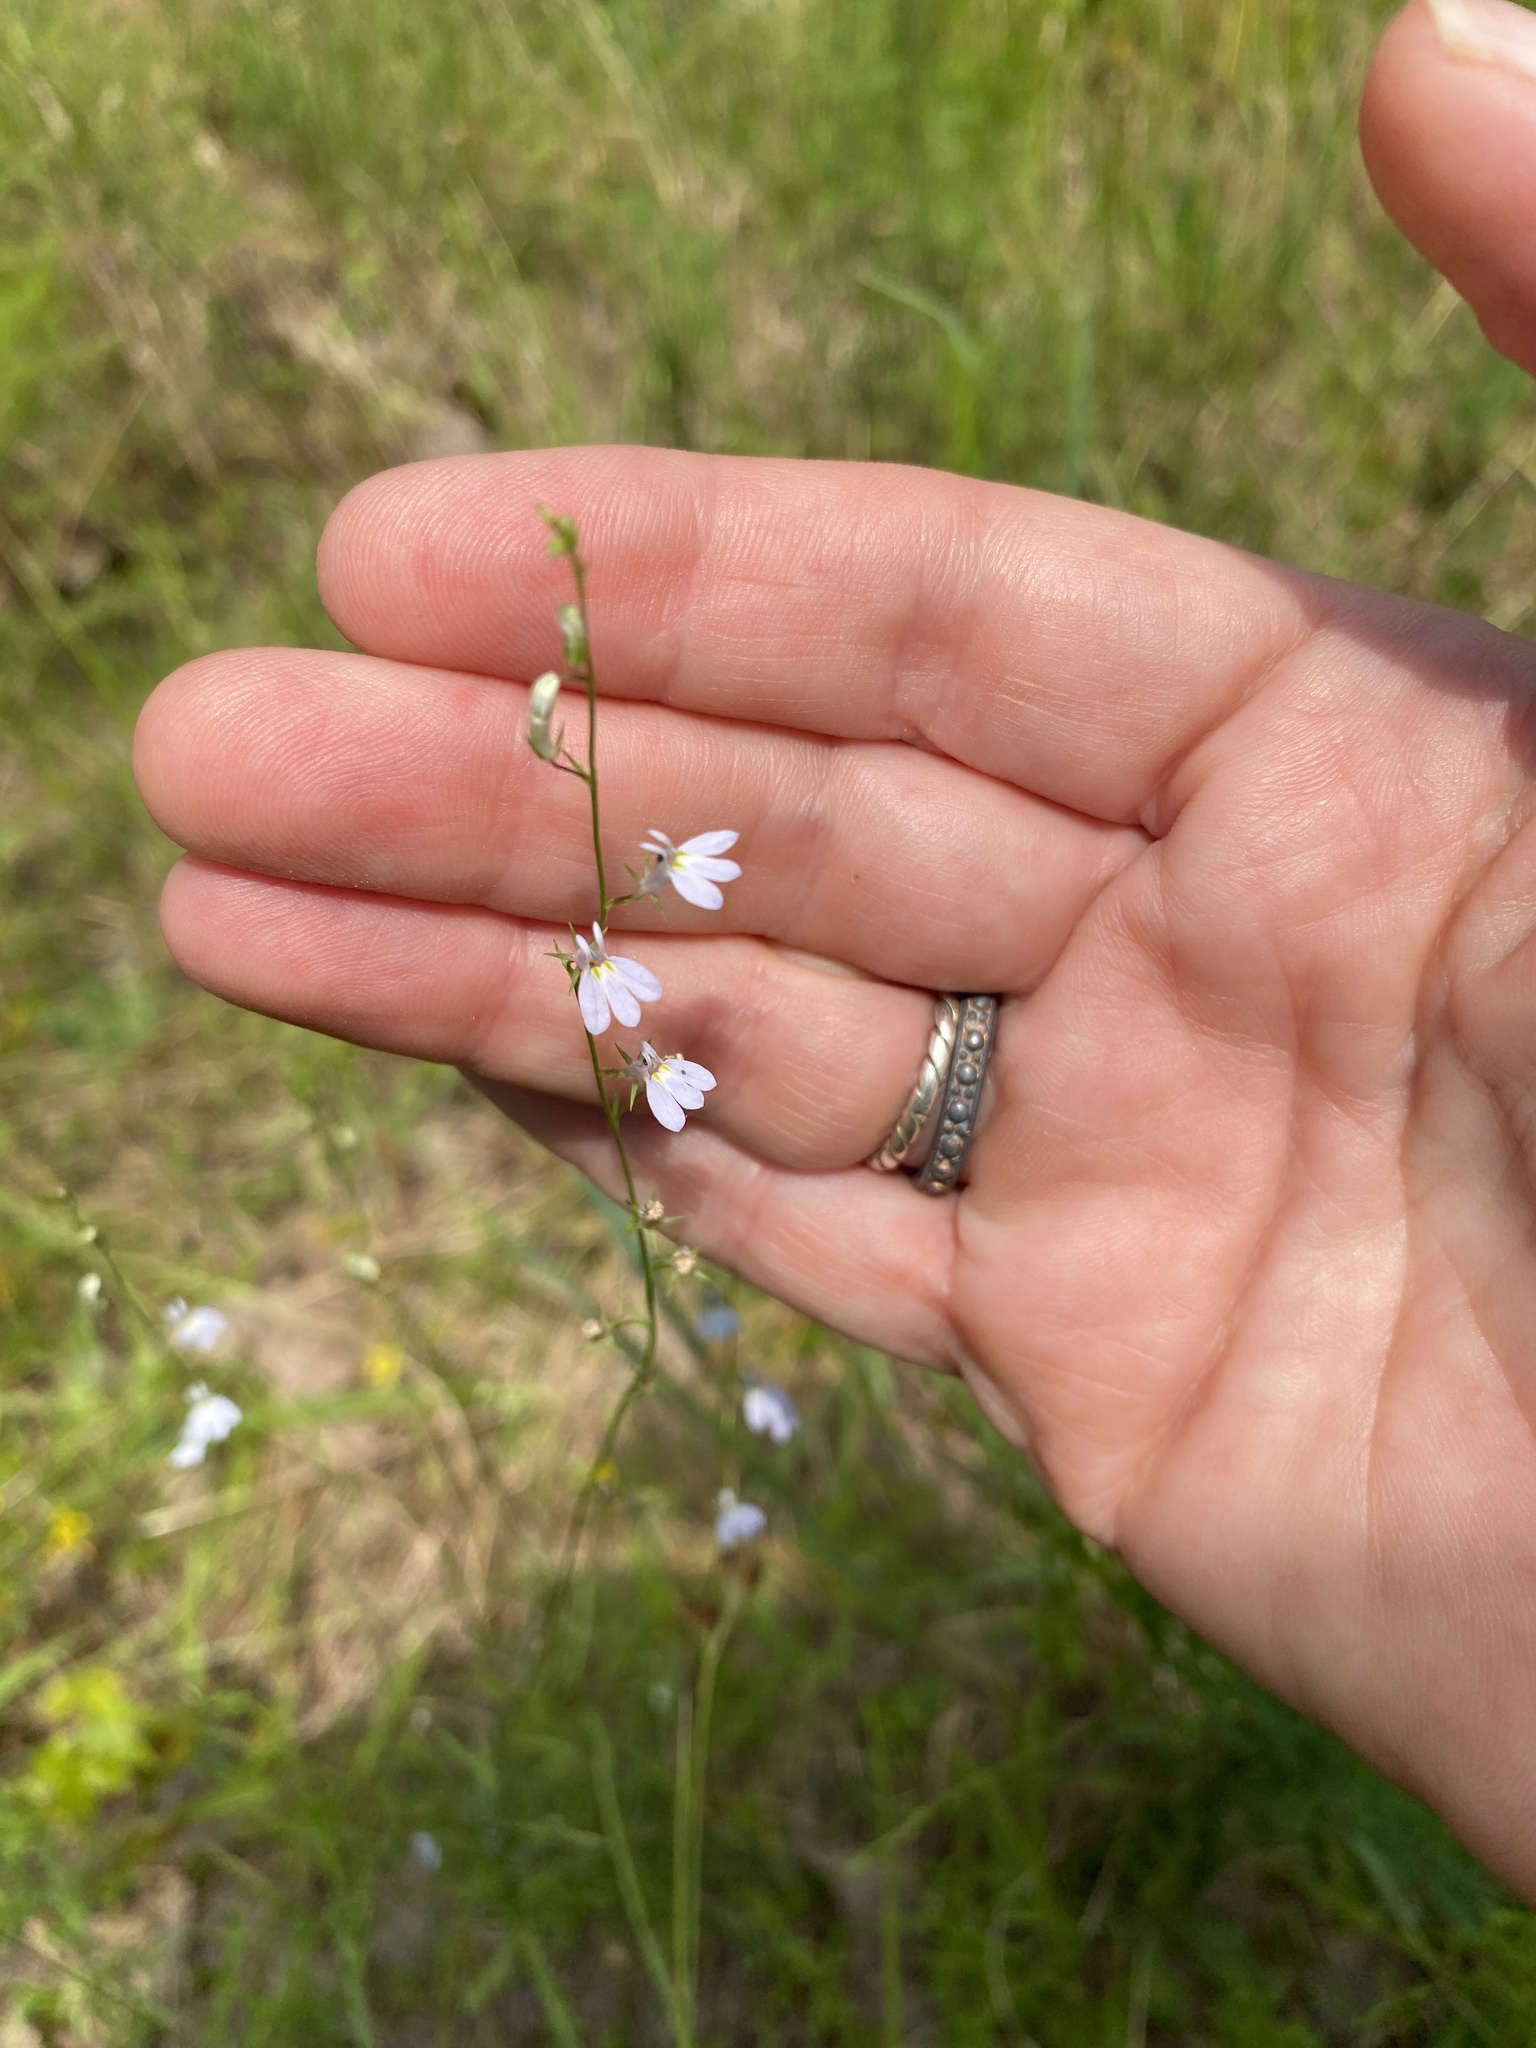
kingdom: Plantae
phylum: Tracheophyta
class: Magnoliopsida
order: Asterales
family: Campanulaceae
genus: Lobelia
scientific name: Lobelia nuttallii
